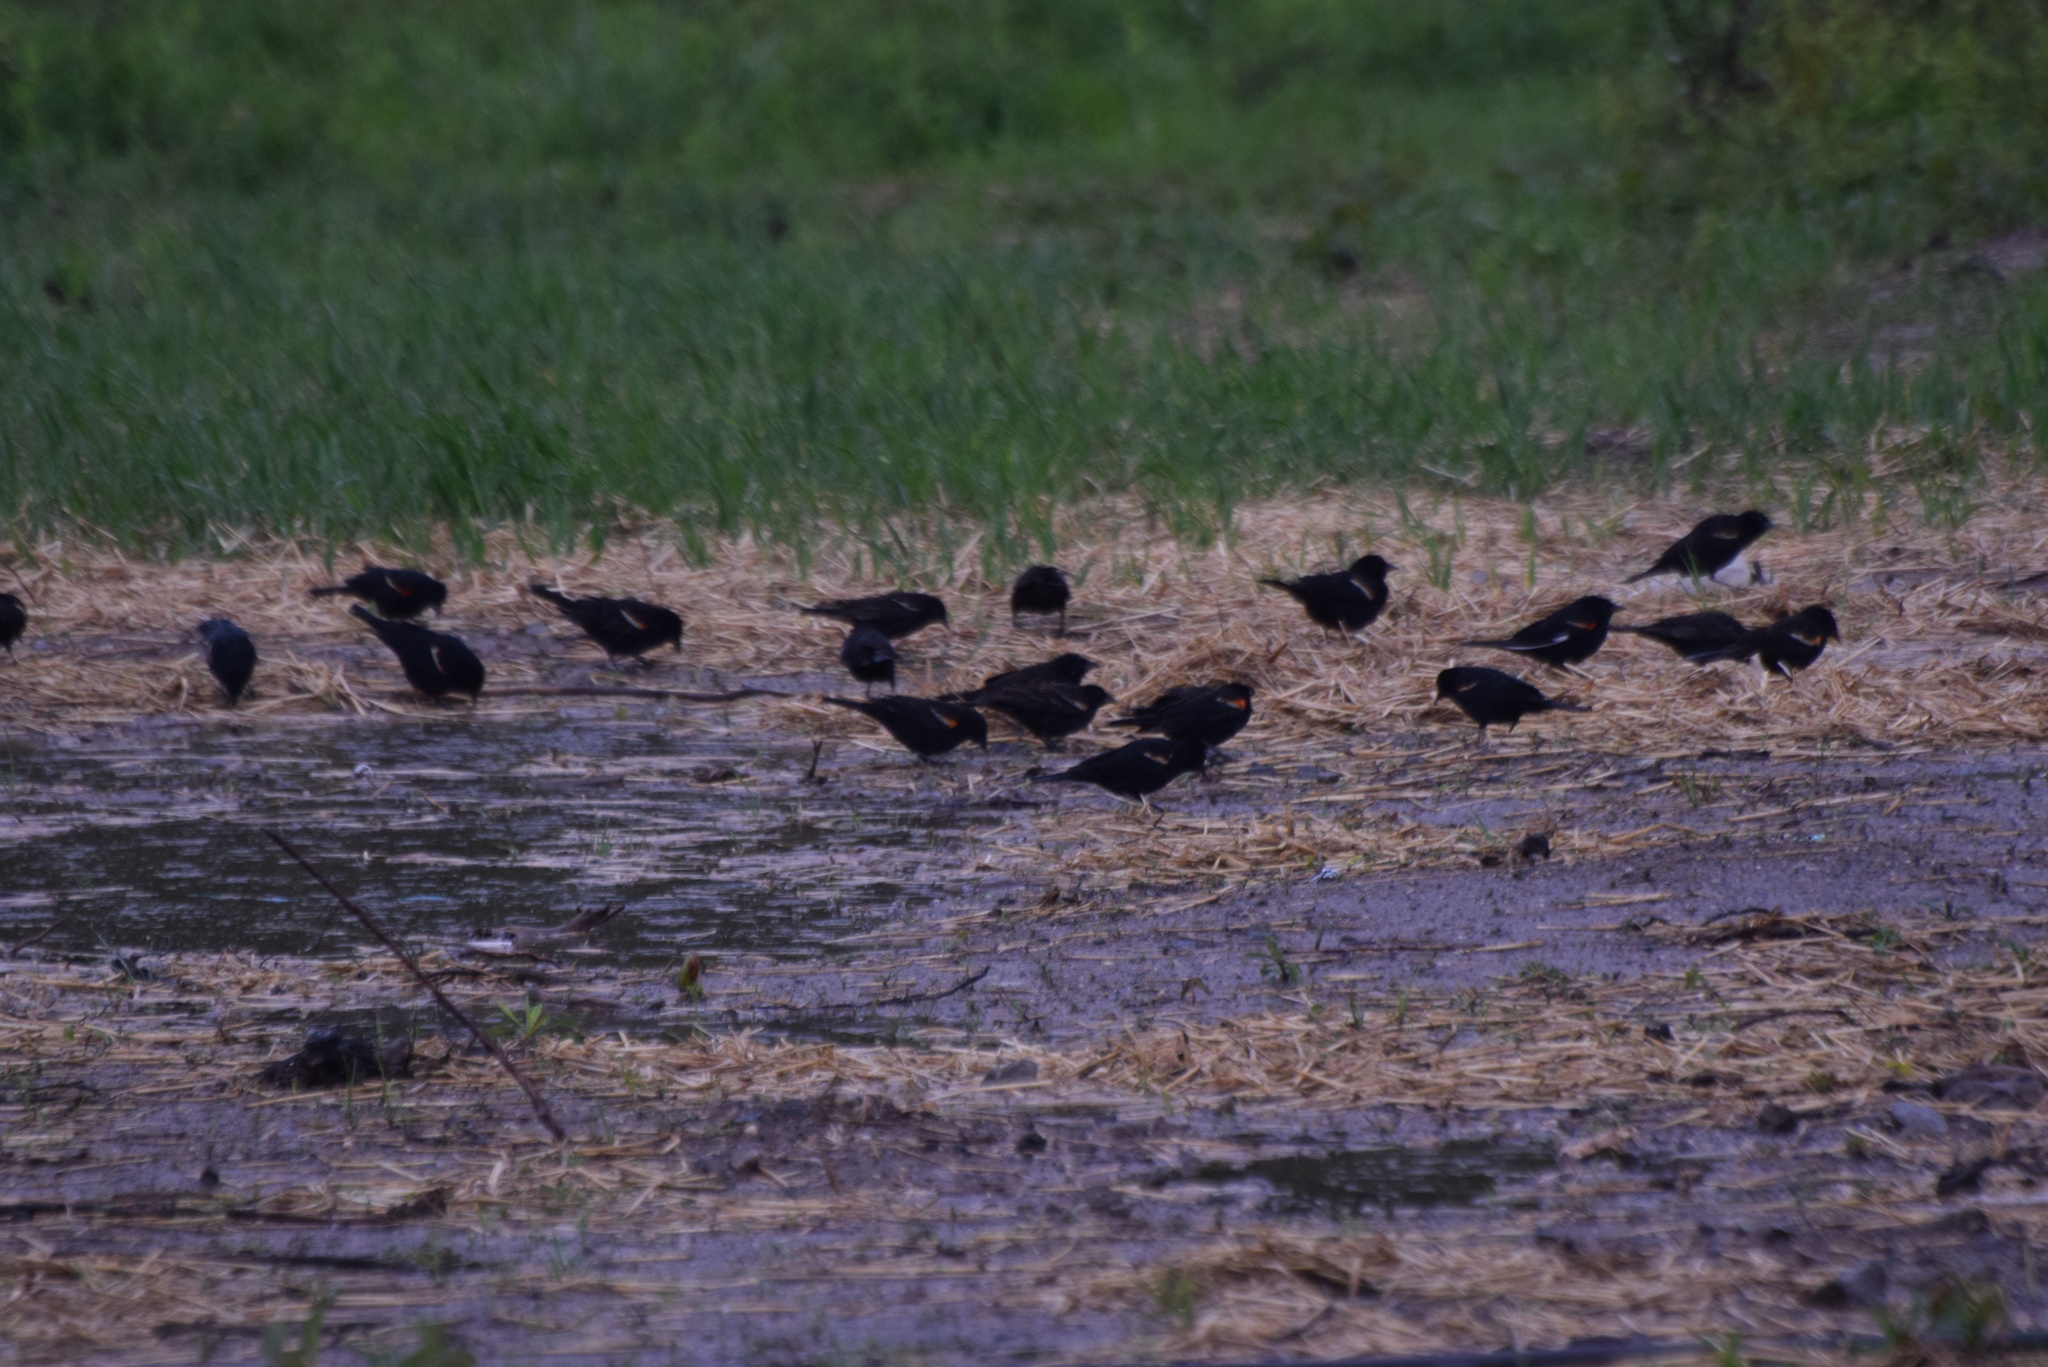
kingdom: Animalia
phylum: Chordata
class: Aves
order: Passeriformes
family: Icteridae
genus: Agelaius
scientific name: Agelaius phoeniceus
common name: Red-winged blackbird
